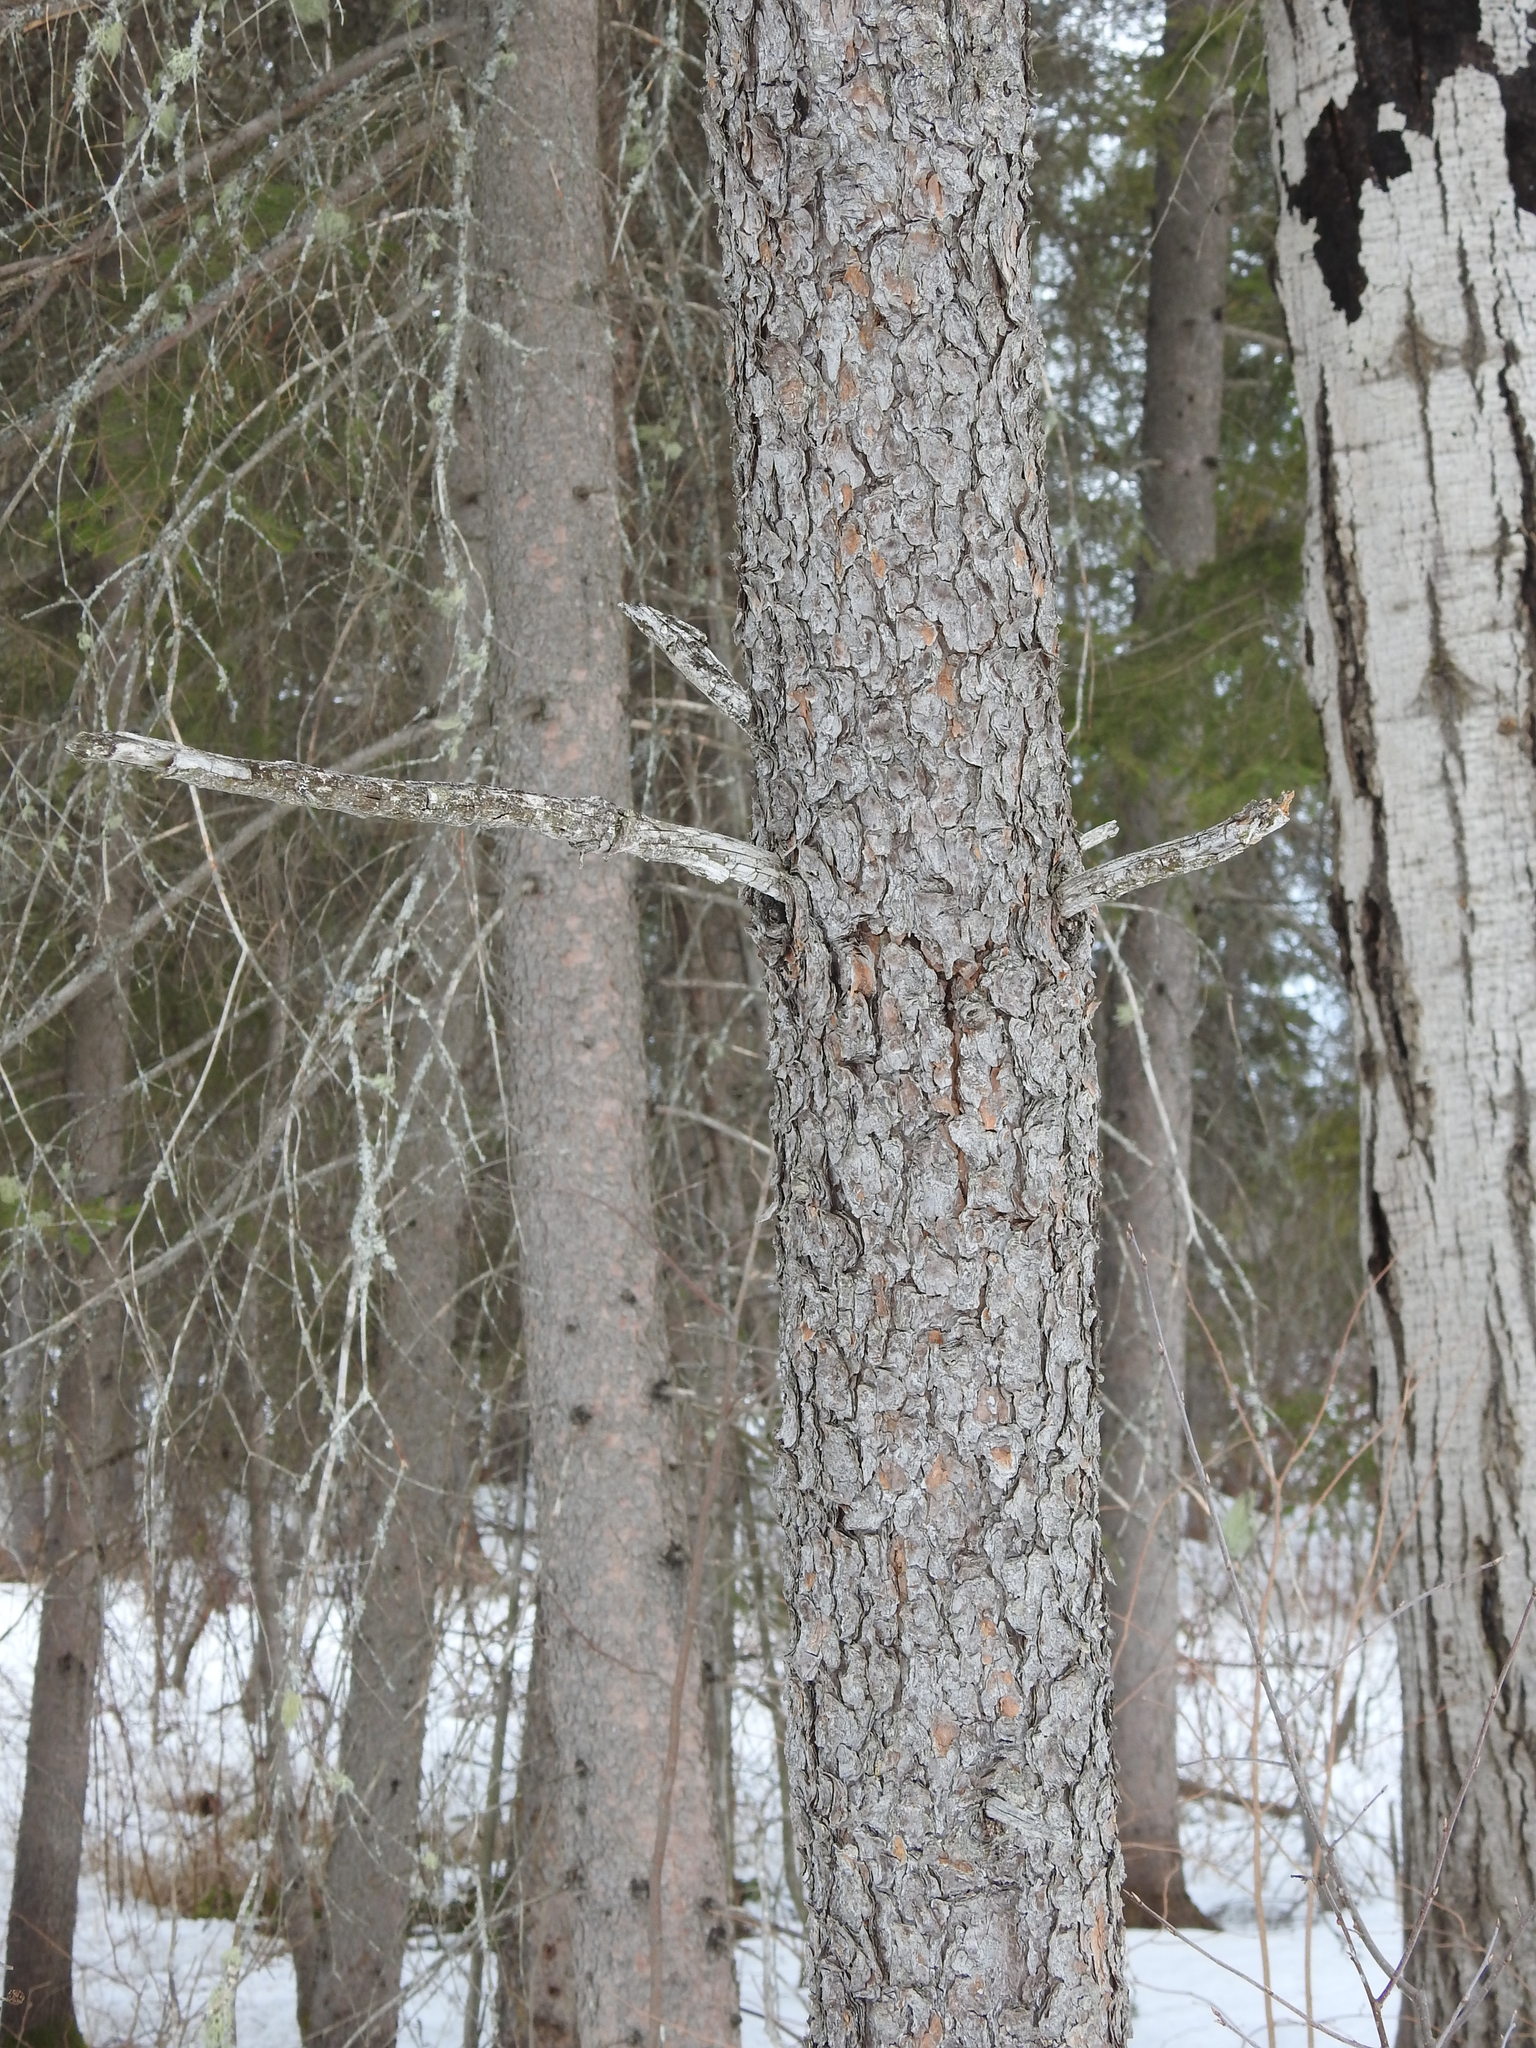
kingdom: Plantae
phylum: Tracheophyta
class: Pinopsida
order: Pinales
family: Pinaceae
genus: Pinus
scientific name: Pinus banksiana
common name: Jack pine
